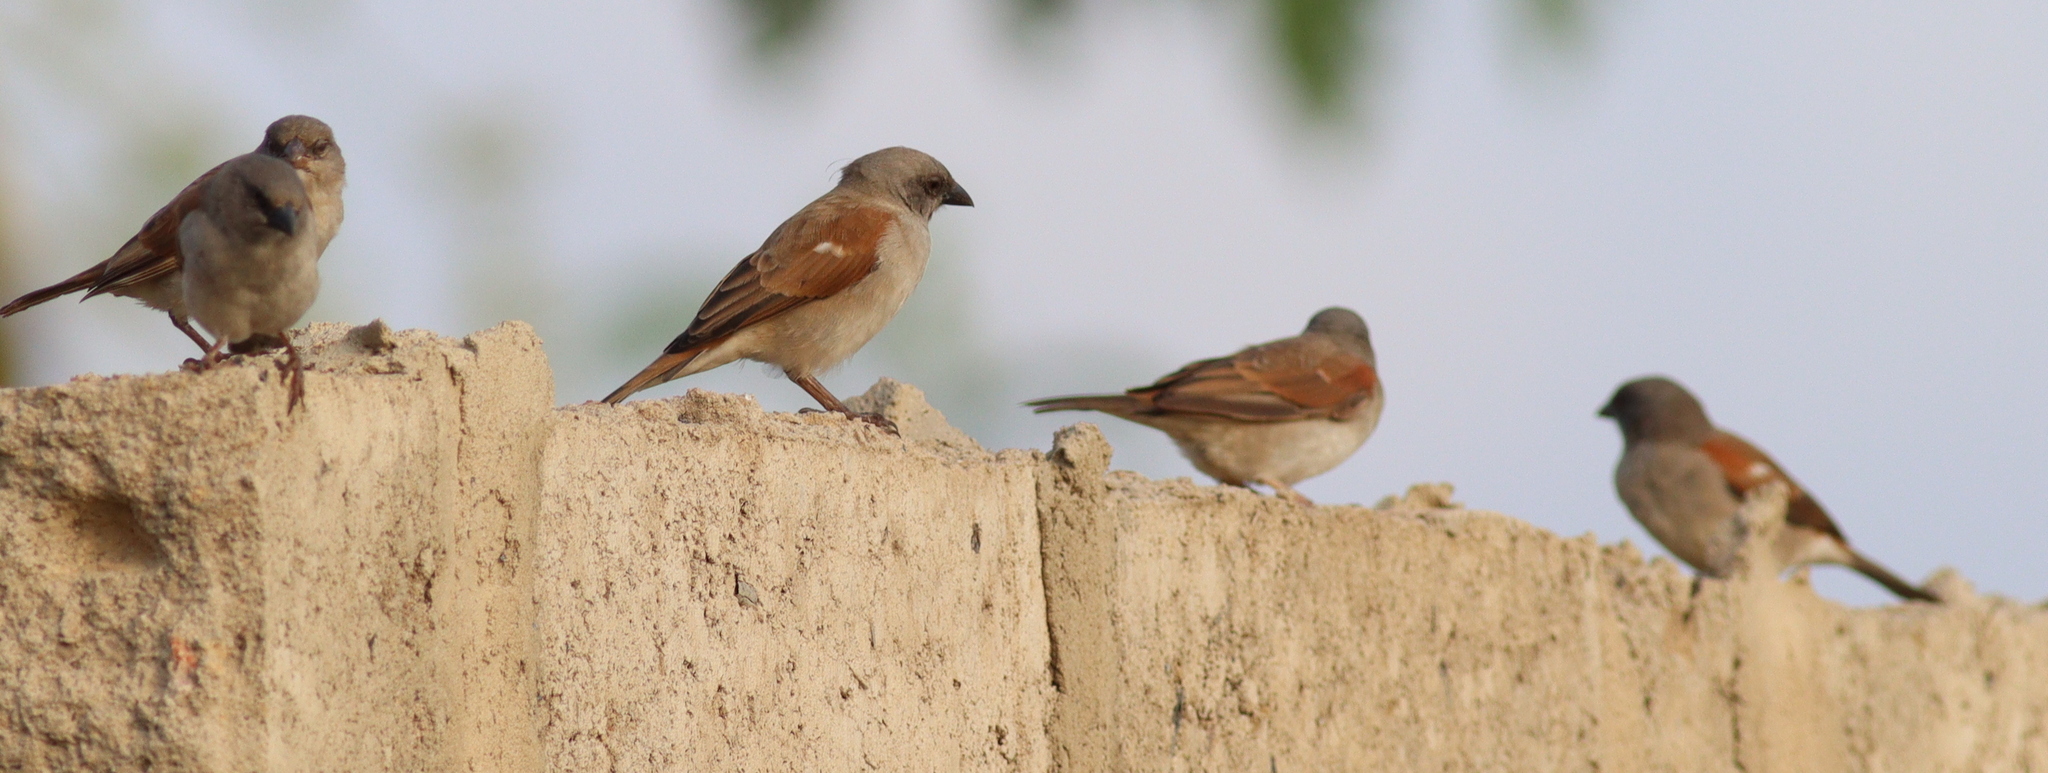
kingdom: Animalia
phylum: Chordata
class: Aves
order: Passeriformes
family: Passeridae
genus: Passer
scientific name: Passer griseus
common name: Northern grey-headed sparrow
